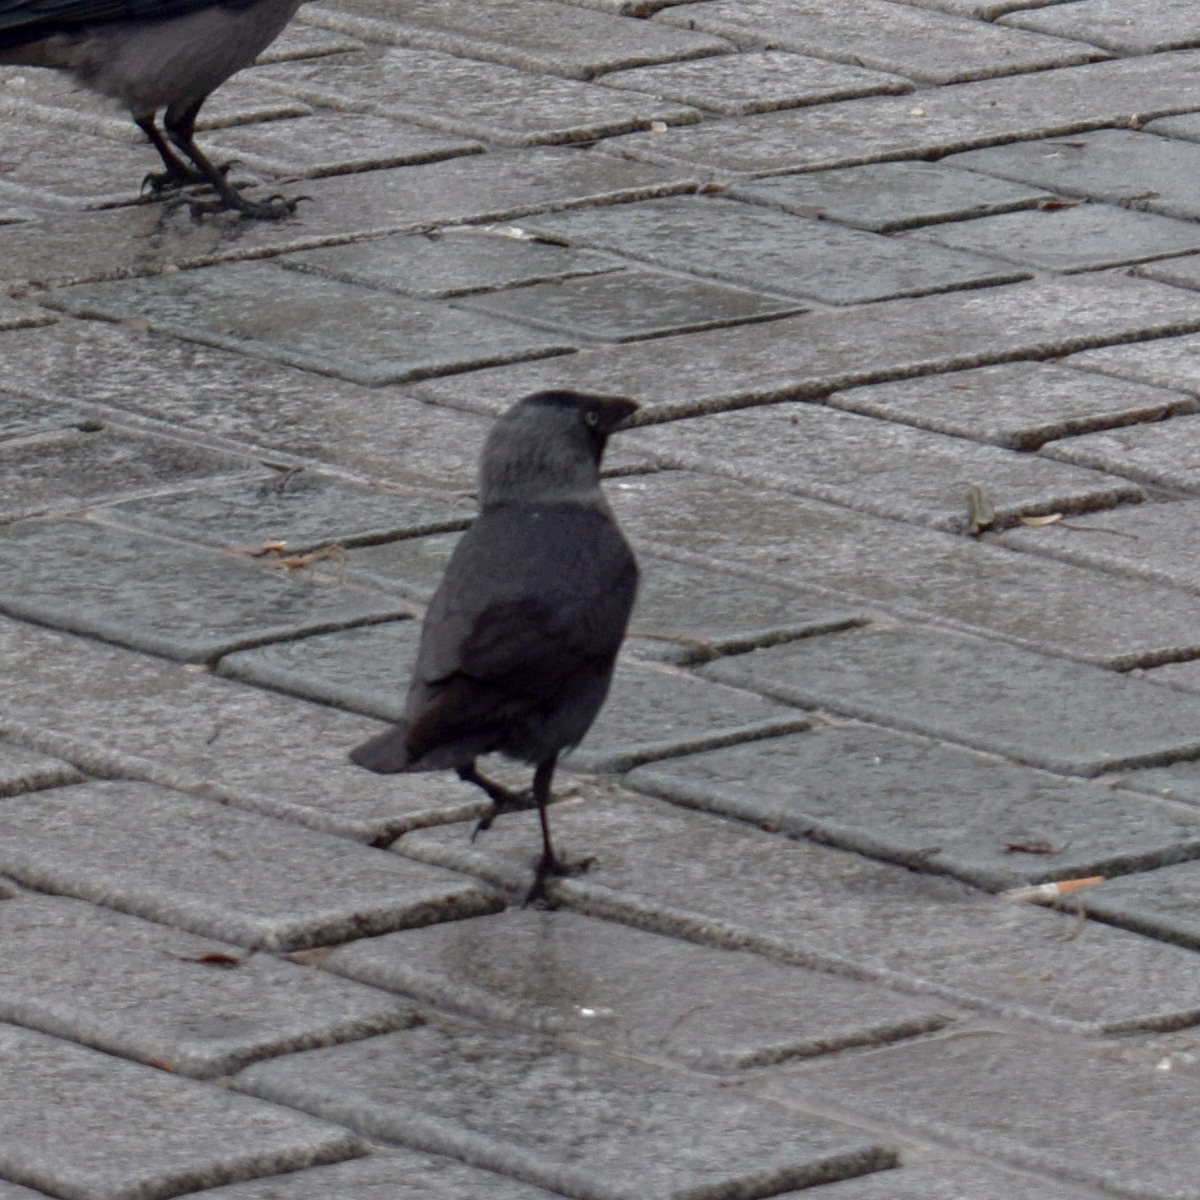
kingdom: Animalia
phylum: Chordata
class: Aves
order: Passeriformes
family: Corvidae
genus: Coloeus
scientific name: Coloeus monedula
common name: Western jackdaw
